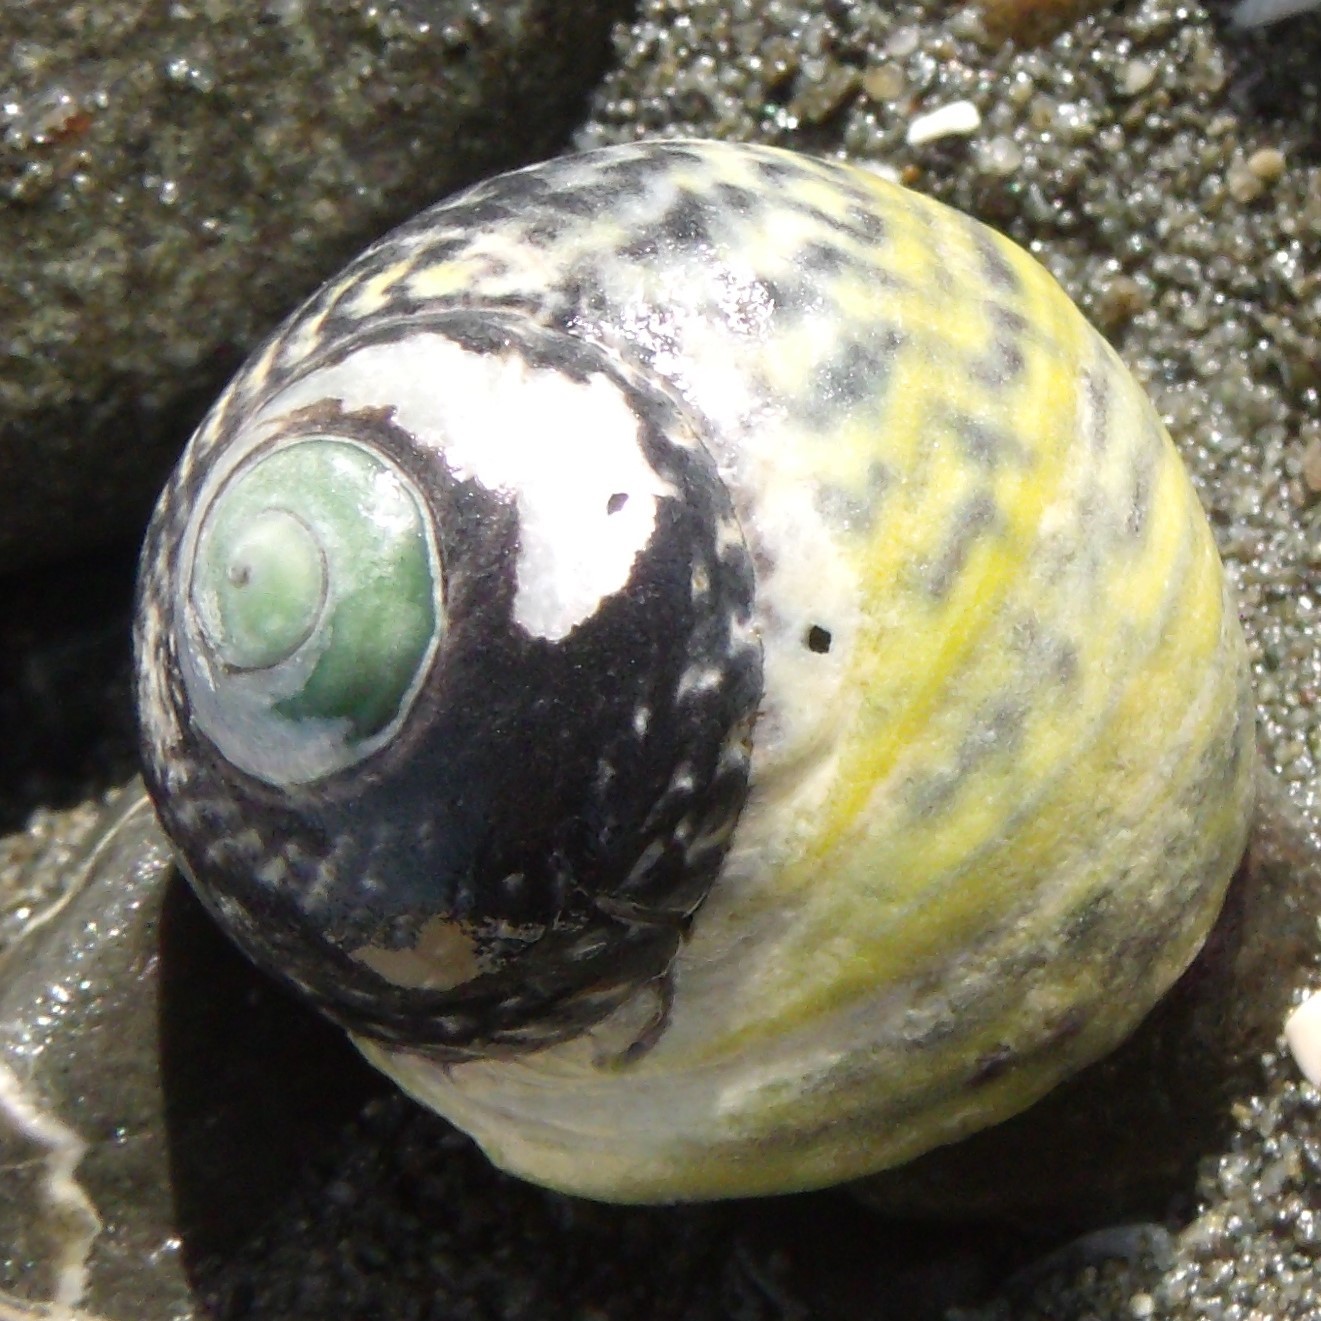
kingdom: Animalia
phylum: Mollusca
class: Gastropoda
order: Trochida
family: Trochidae
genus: Diloma
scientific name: Diloma subrostratum
